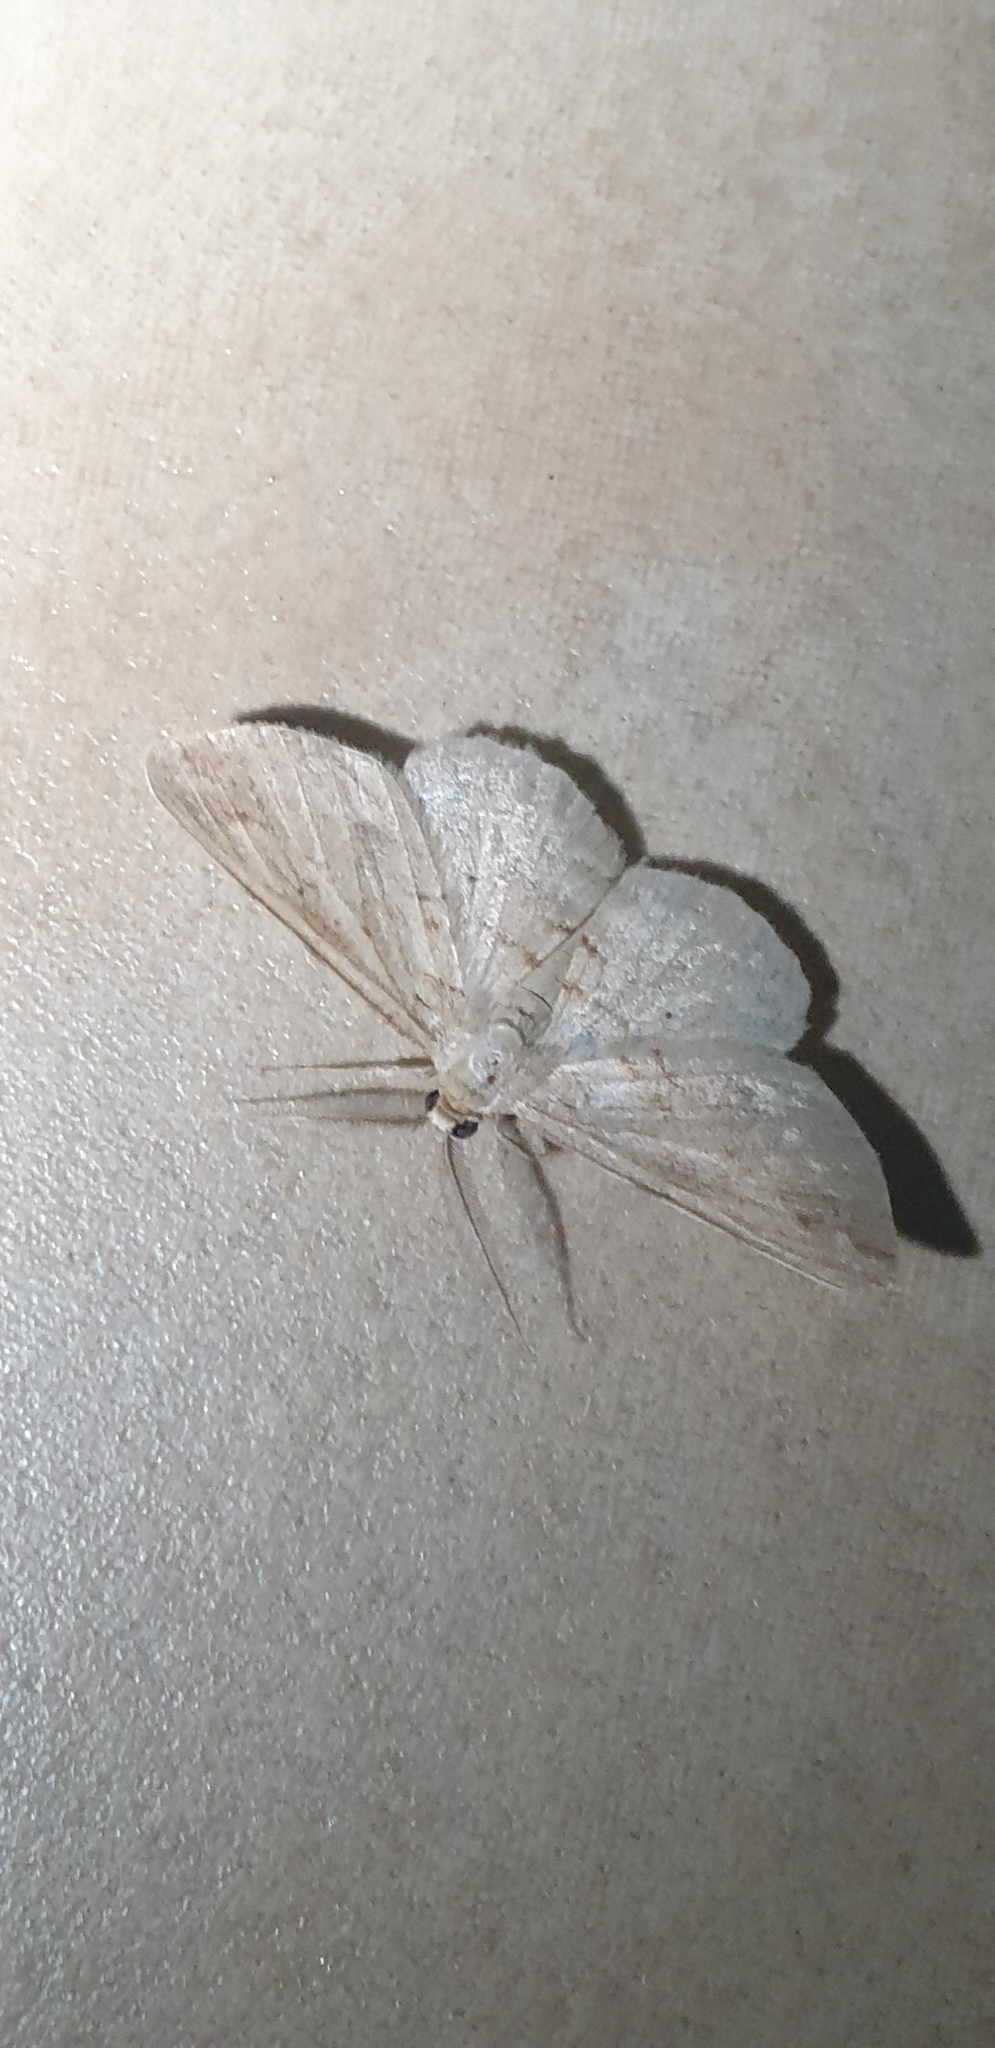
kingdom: Animalia
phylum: Arthropoda
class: Insecta
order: Lepidoptera
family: Geometridae
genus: Syneora
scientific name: Syneora lithina
